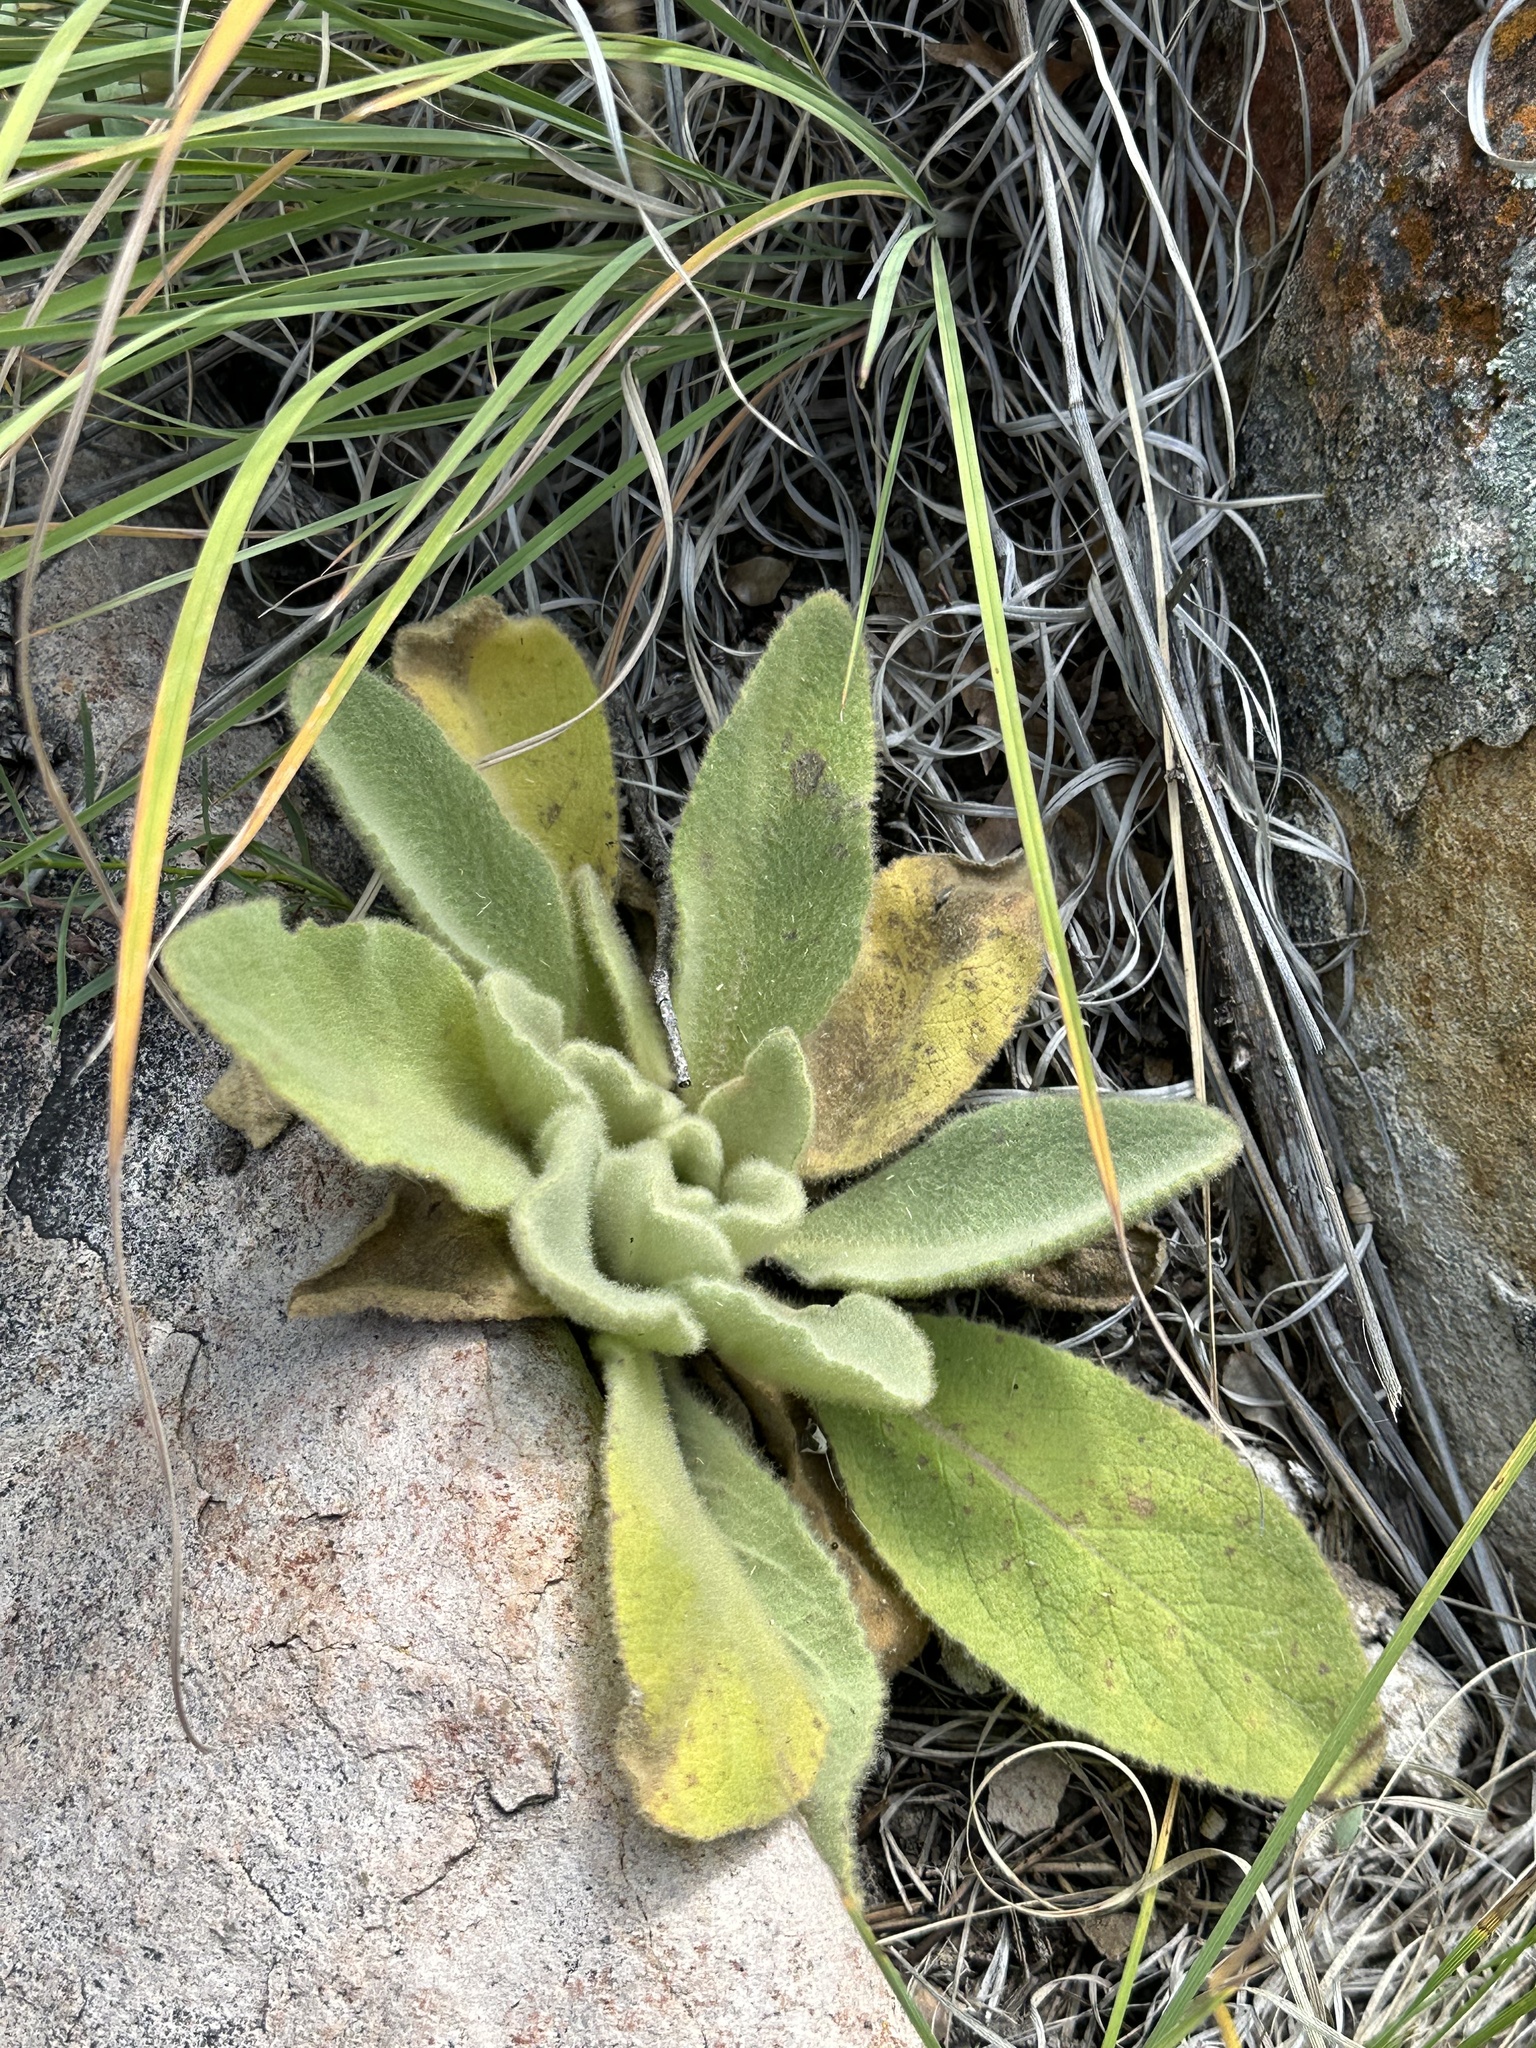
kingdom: Plantae
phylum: Tracheophyta
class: Magnoliopsida
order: Lamiales
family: Scrophulariaceae
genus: Verbascum
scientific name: Verbascum thapsus
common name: Common mullein
